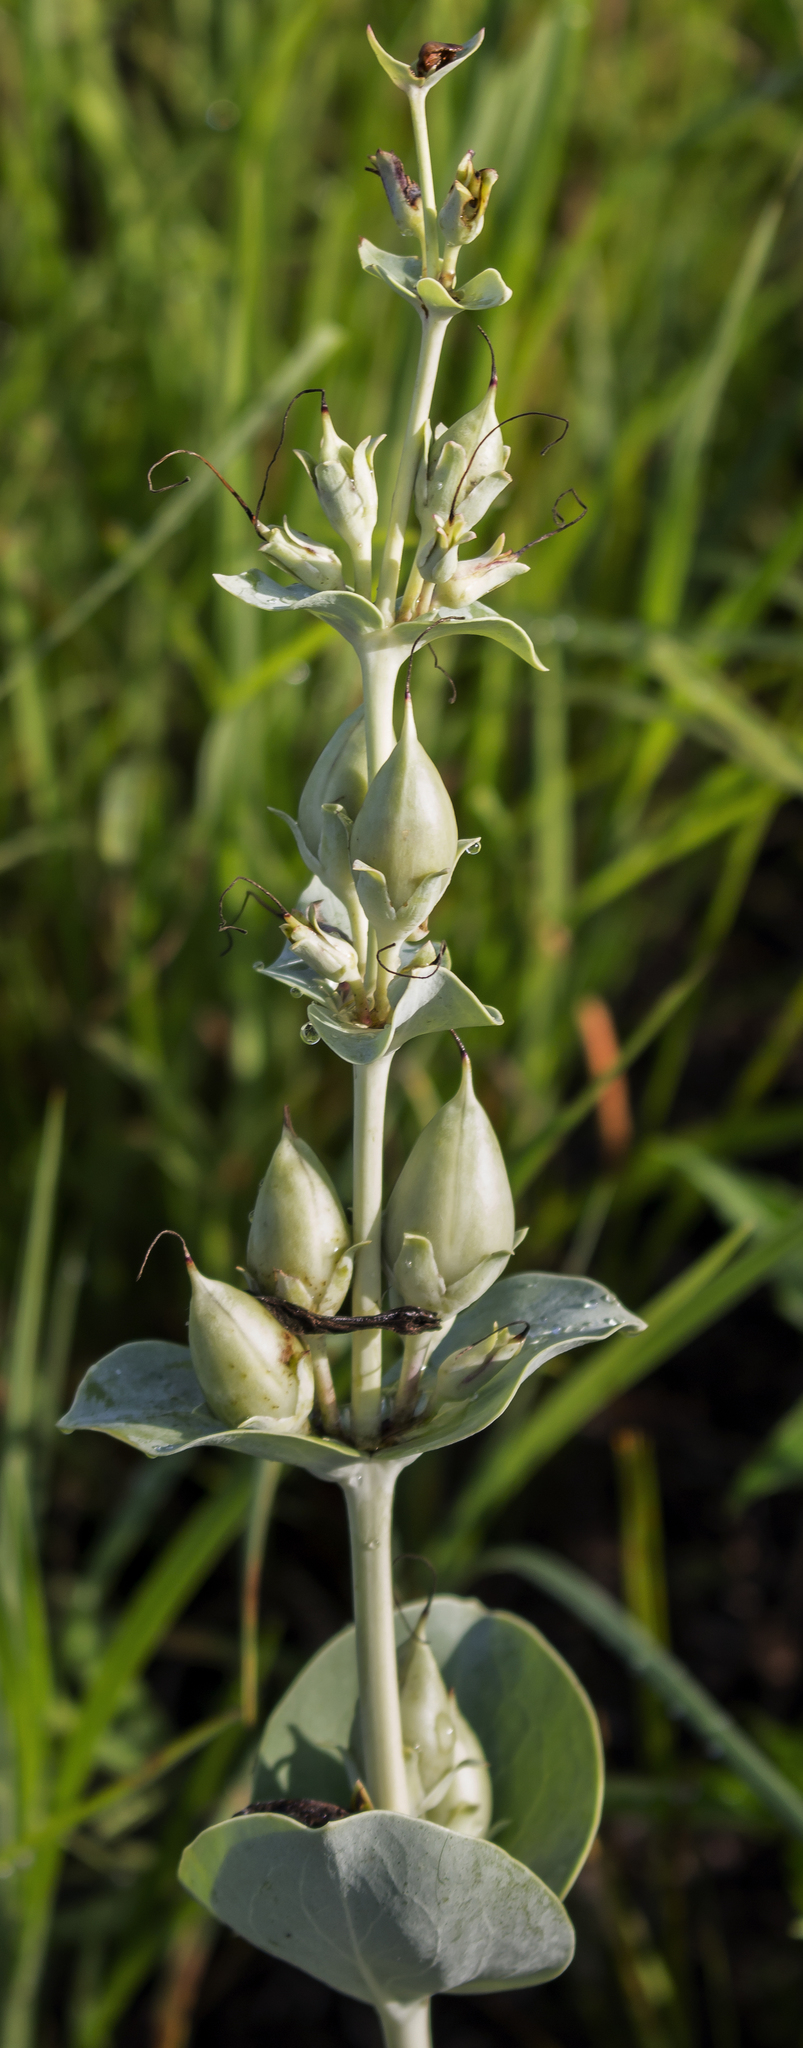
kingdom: Plantae
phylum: Tracheophyta
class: Magnoliopsida
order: Lamiales
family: Plantaginaceae
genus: Penstemon
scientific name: Penstemon
